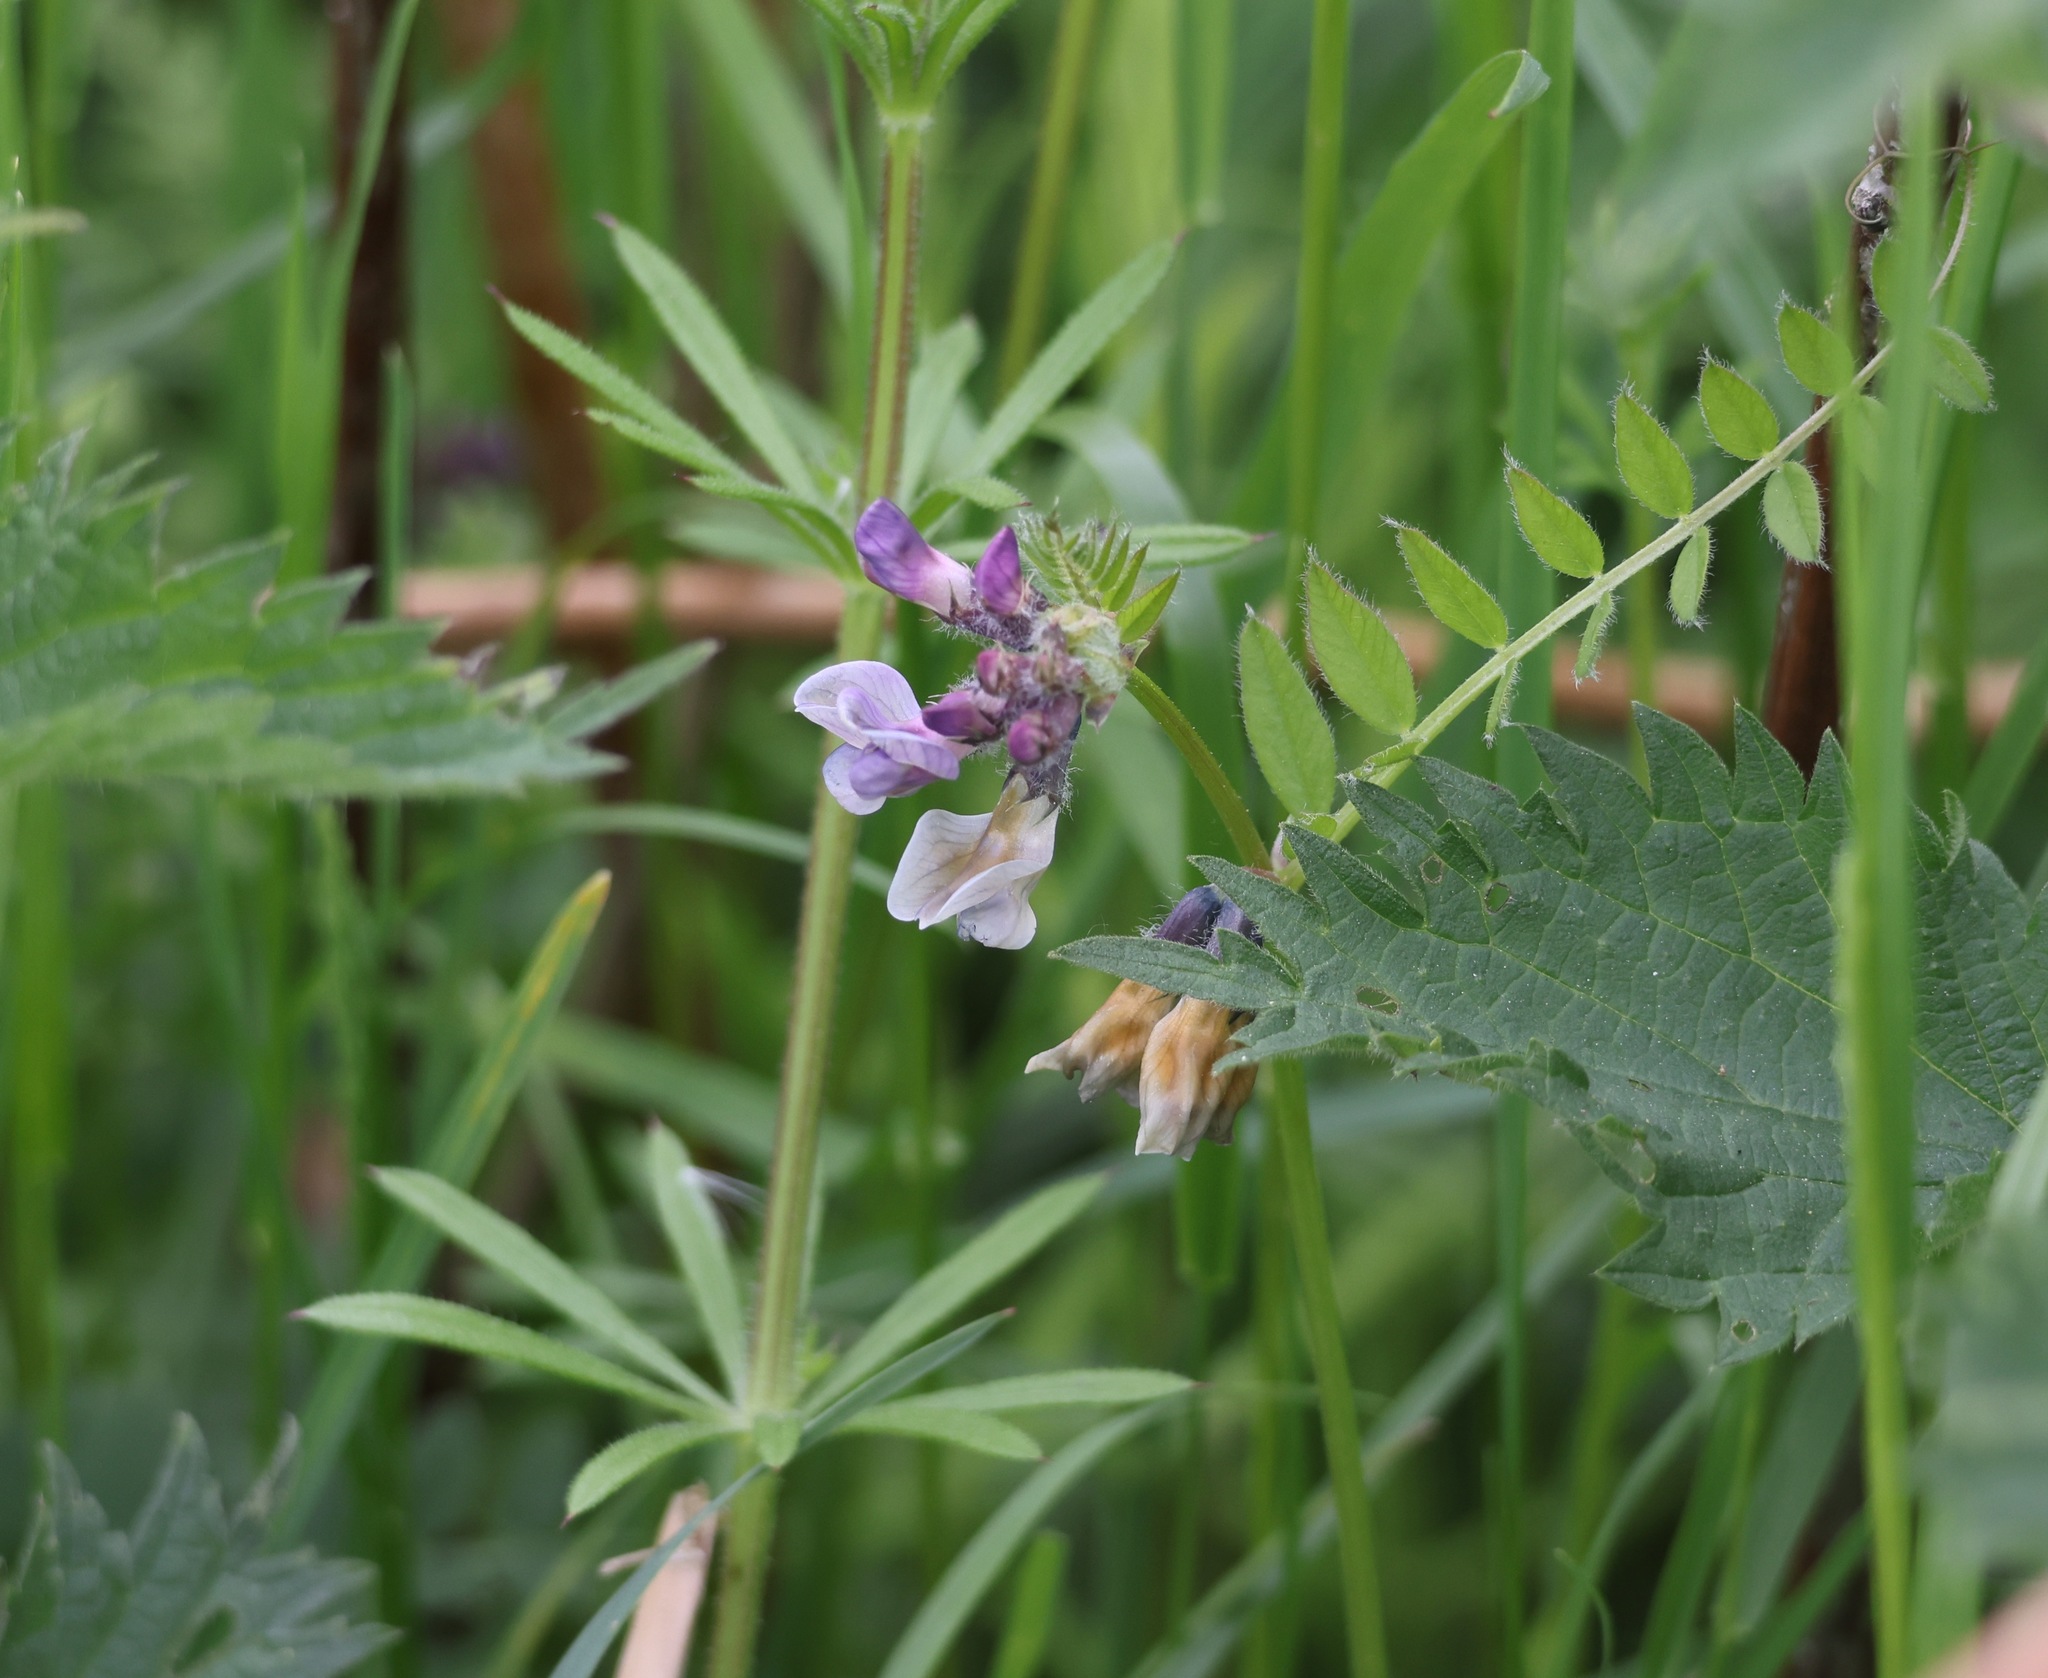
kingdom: Plantae
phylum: Tracheophyta
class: Magnoliopsida
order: Fabales
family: Fabaceae
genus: Vicia
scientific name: Vicia sepium
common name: Bush vetch
